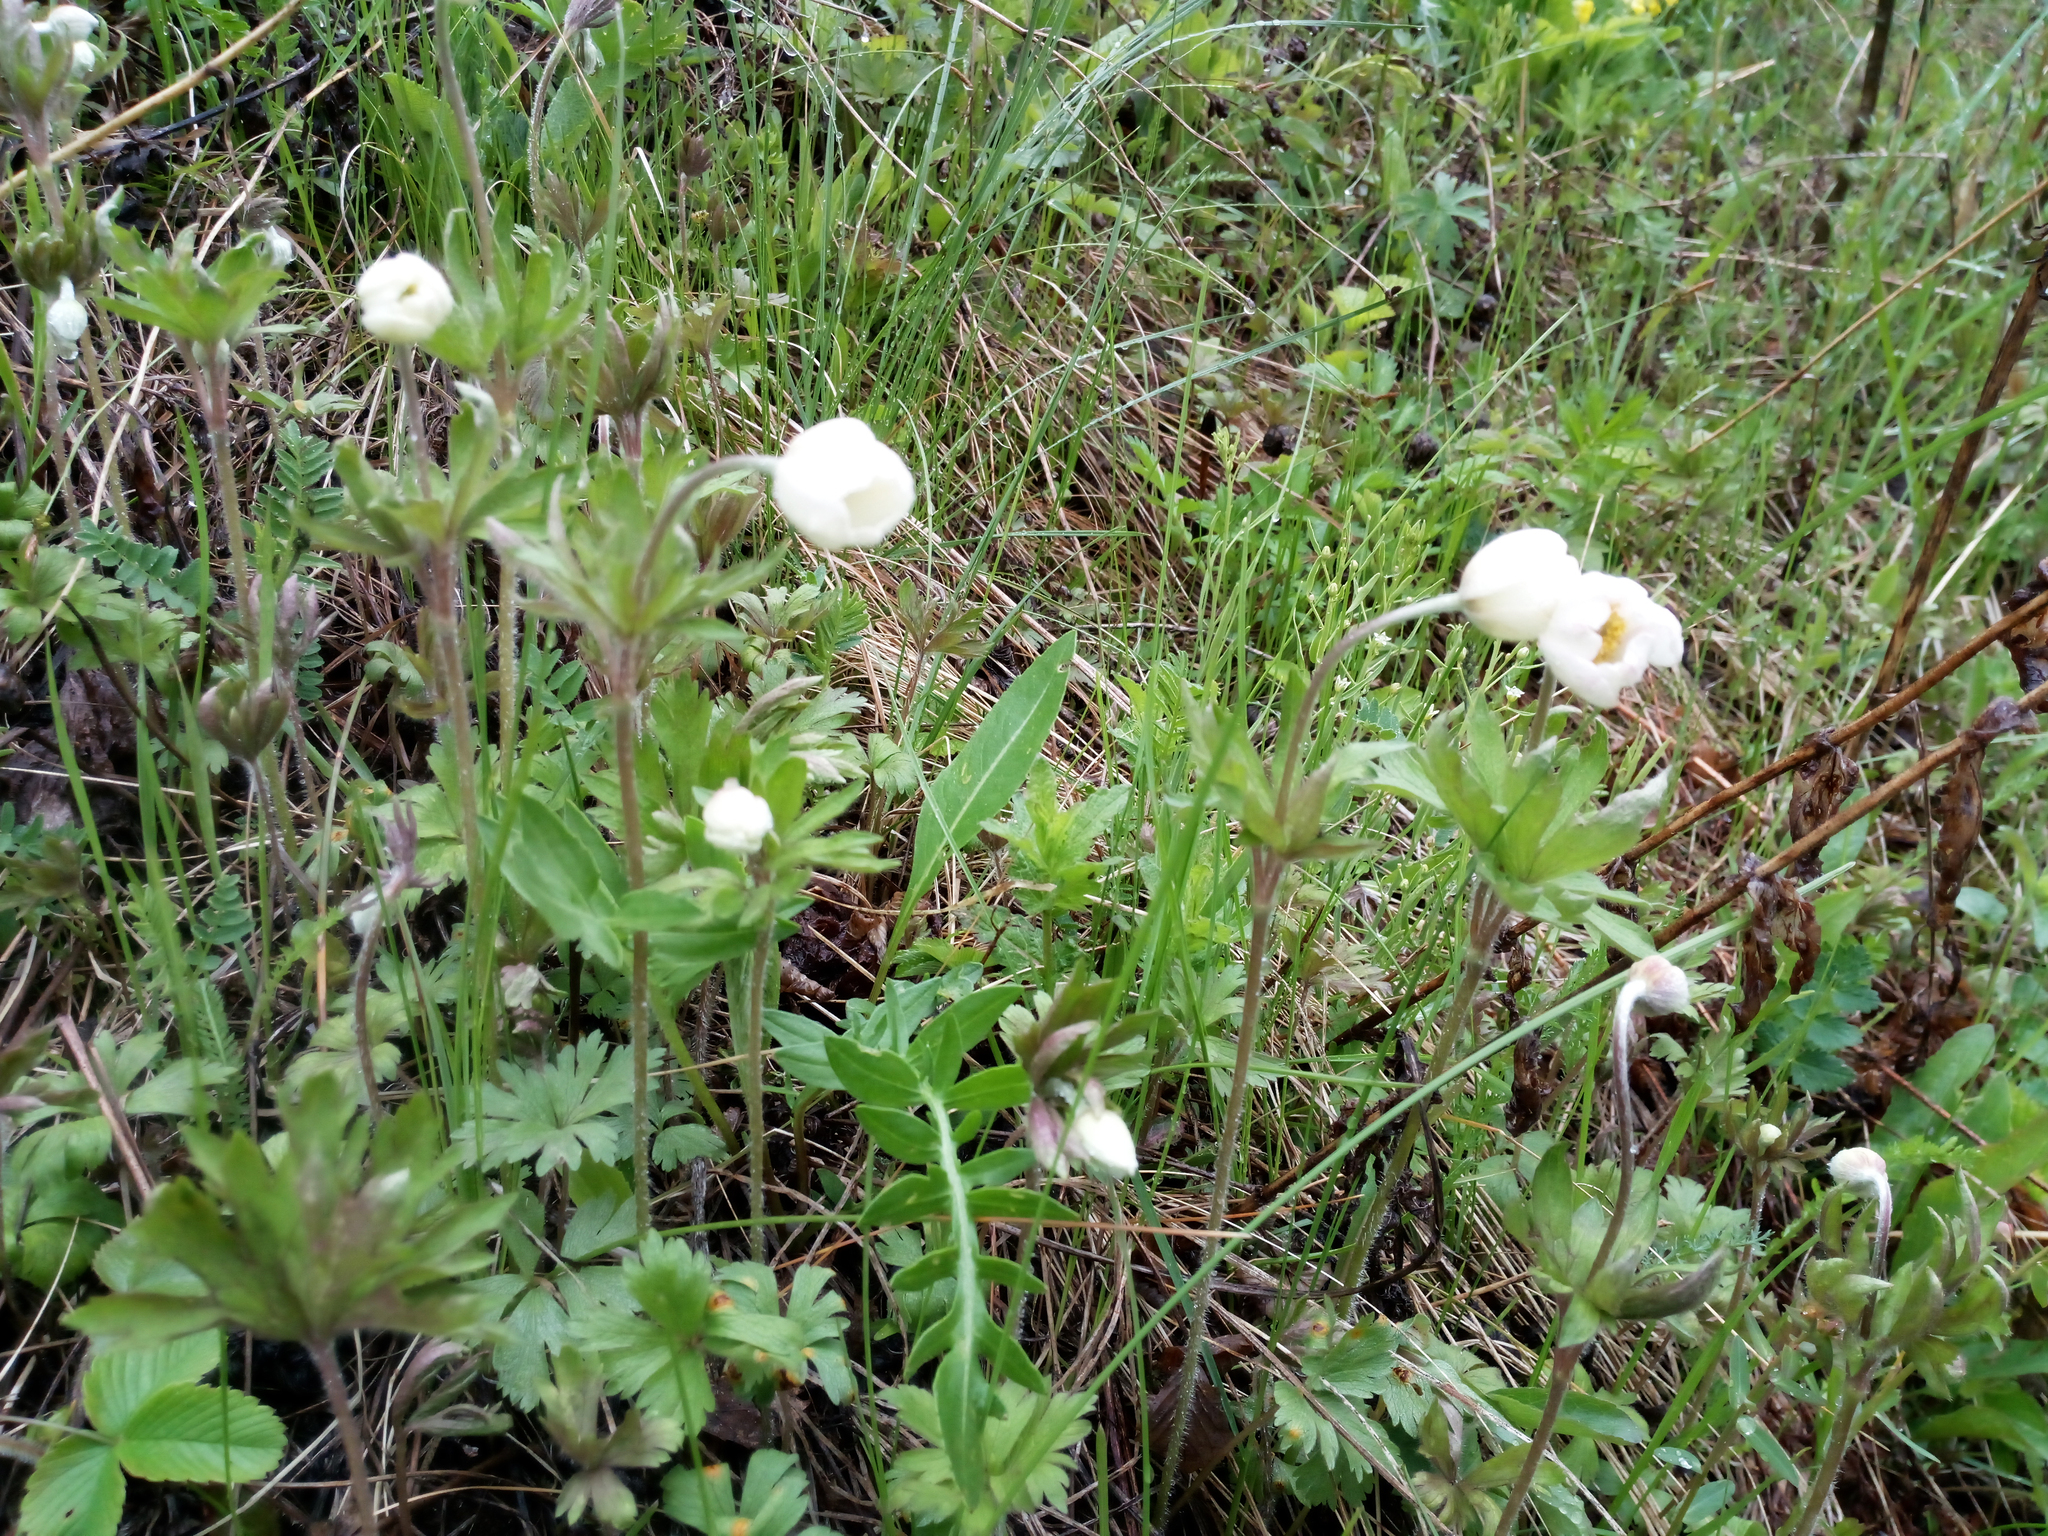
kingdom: Plantae
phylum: Tracheophyta
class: Magnoliopsida
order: Ranunculales
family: Ranunculaceae
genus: Anemone
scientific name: Anemone sylvestris
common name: Snowdrop anemone
